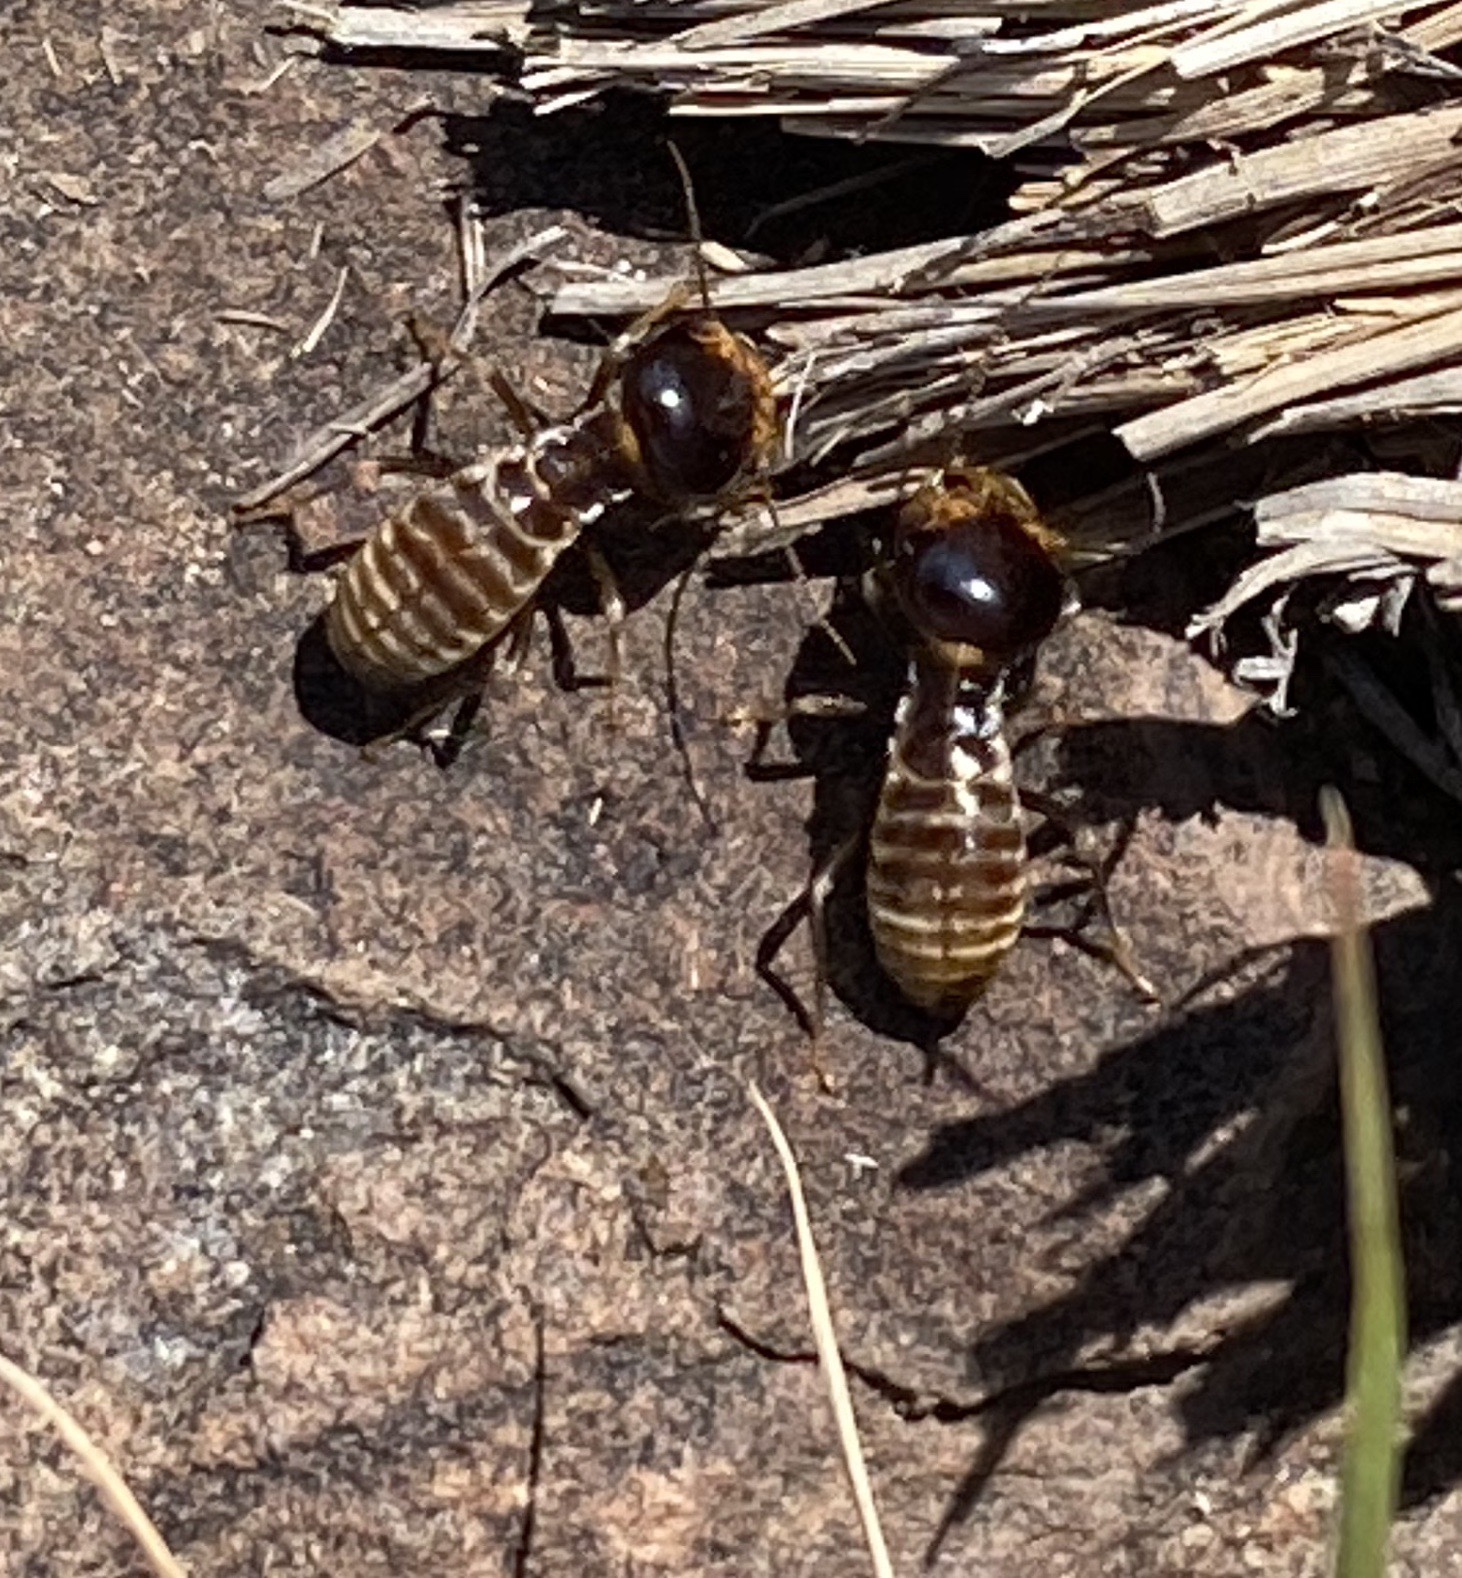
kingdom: Animalia
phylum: Arthropoda
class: Insecta
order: Blattodea
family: Hodotermitidae
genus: Hodotermes
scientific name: Hodotermes mossambicus
